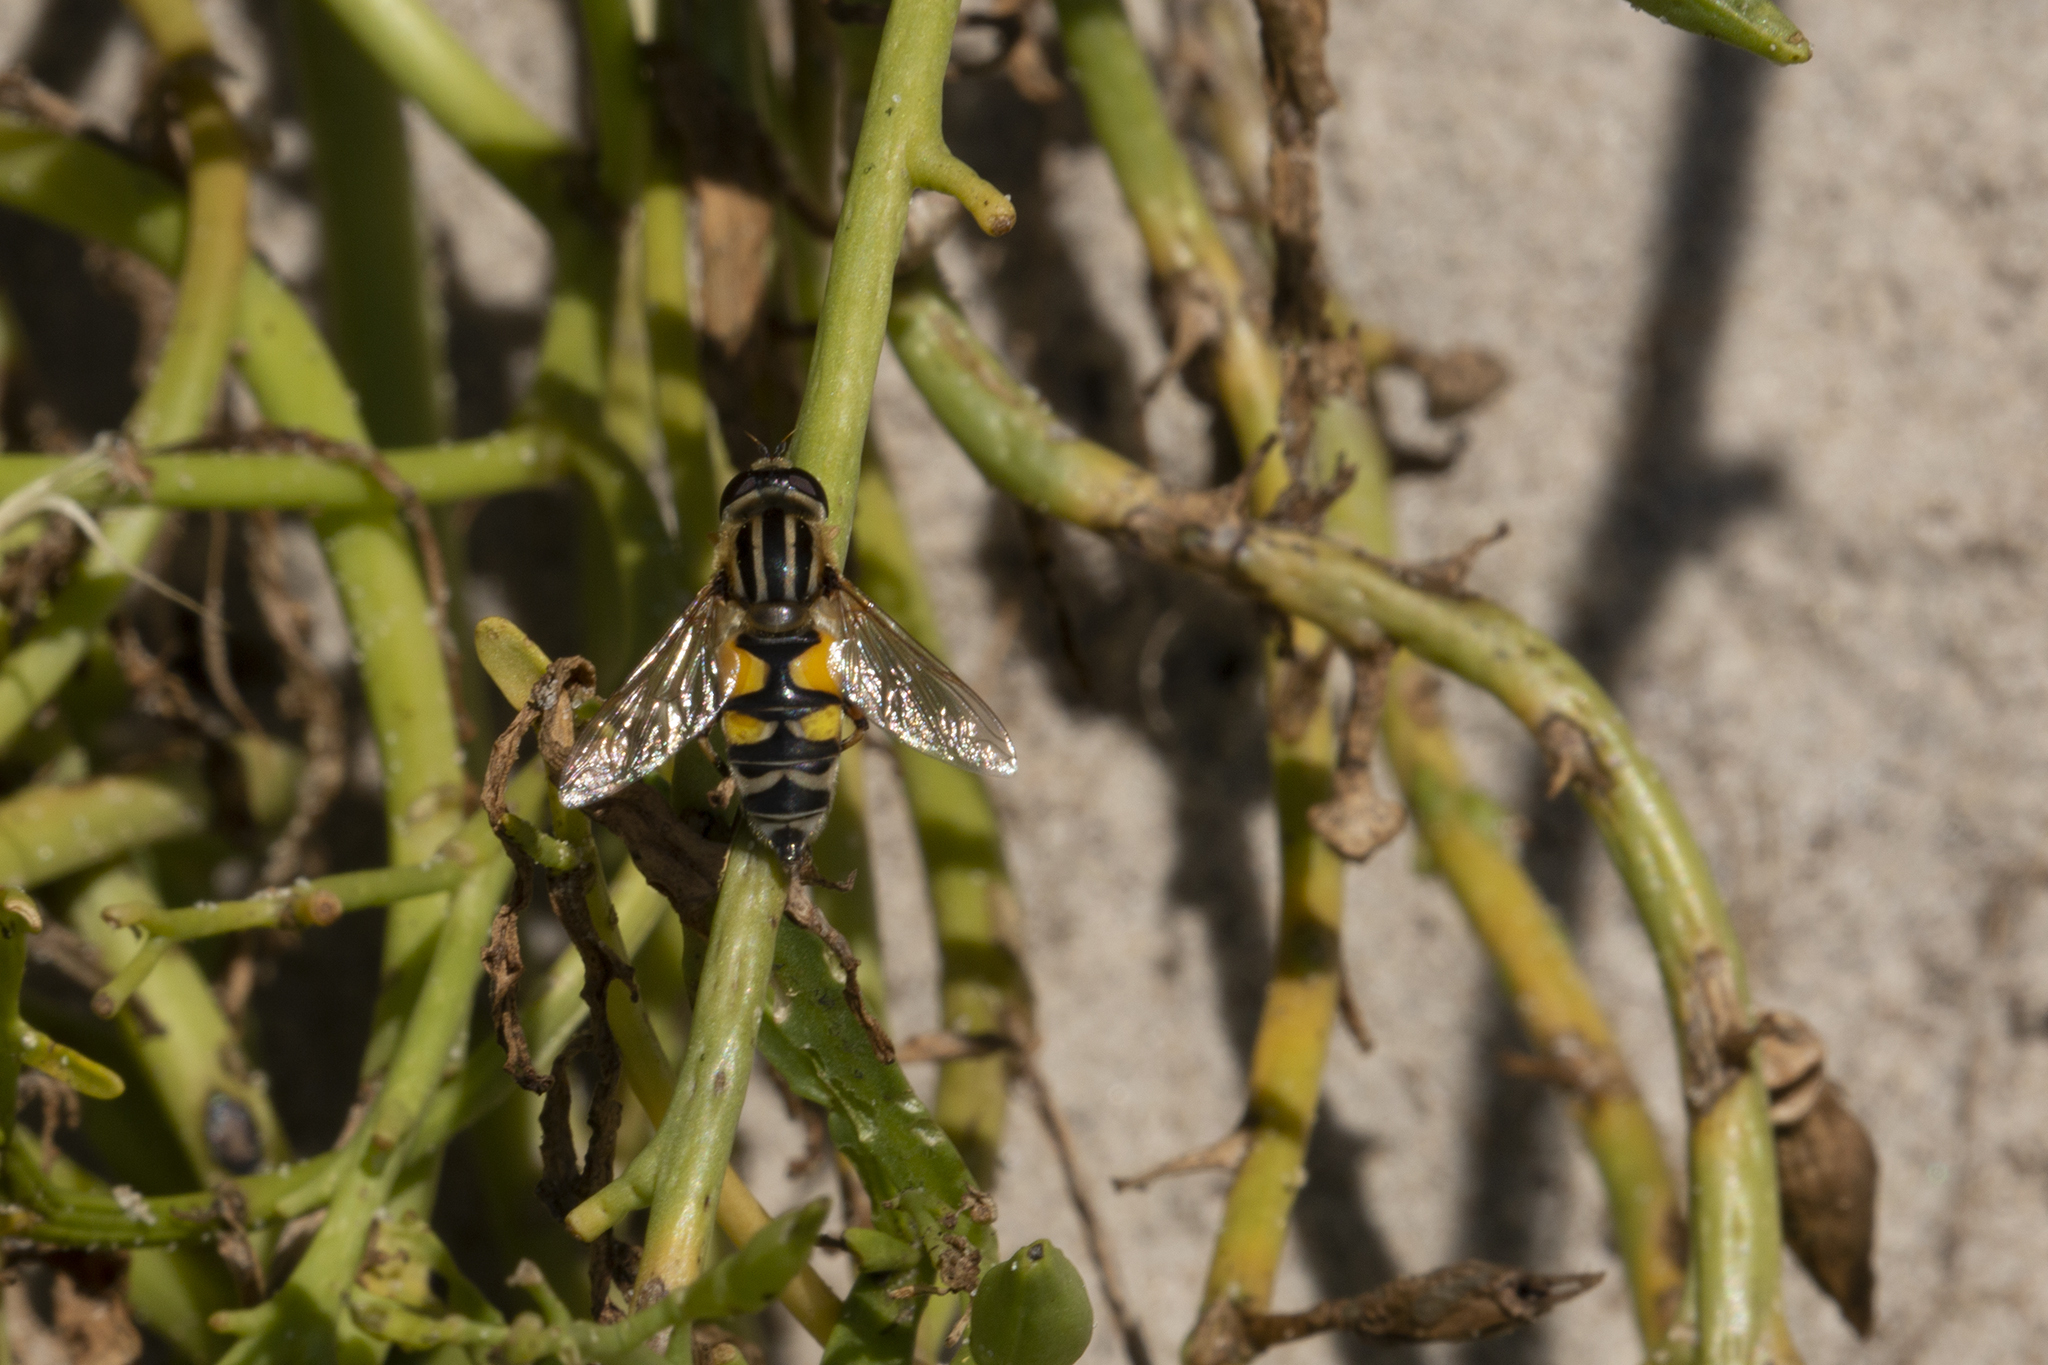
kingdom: Animalia
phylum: Arthropoda
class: Insecta
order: Diptera
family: Syrphidae
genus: Helophilus
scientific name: Helophilus trivittatus
